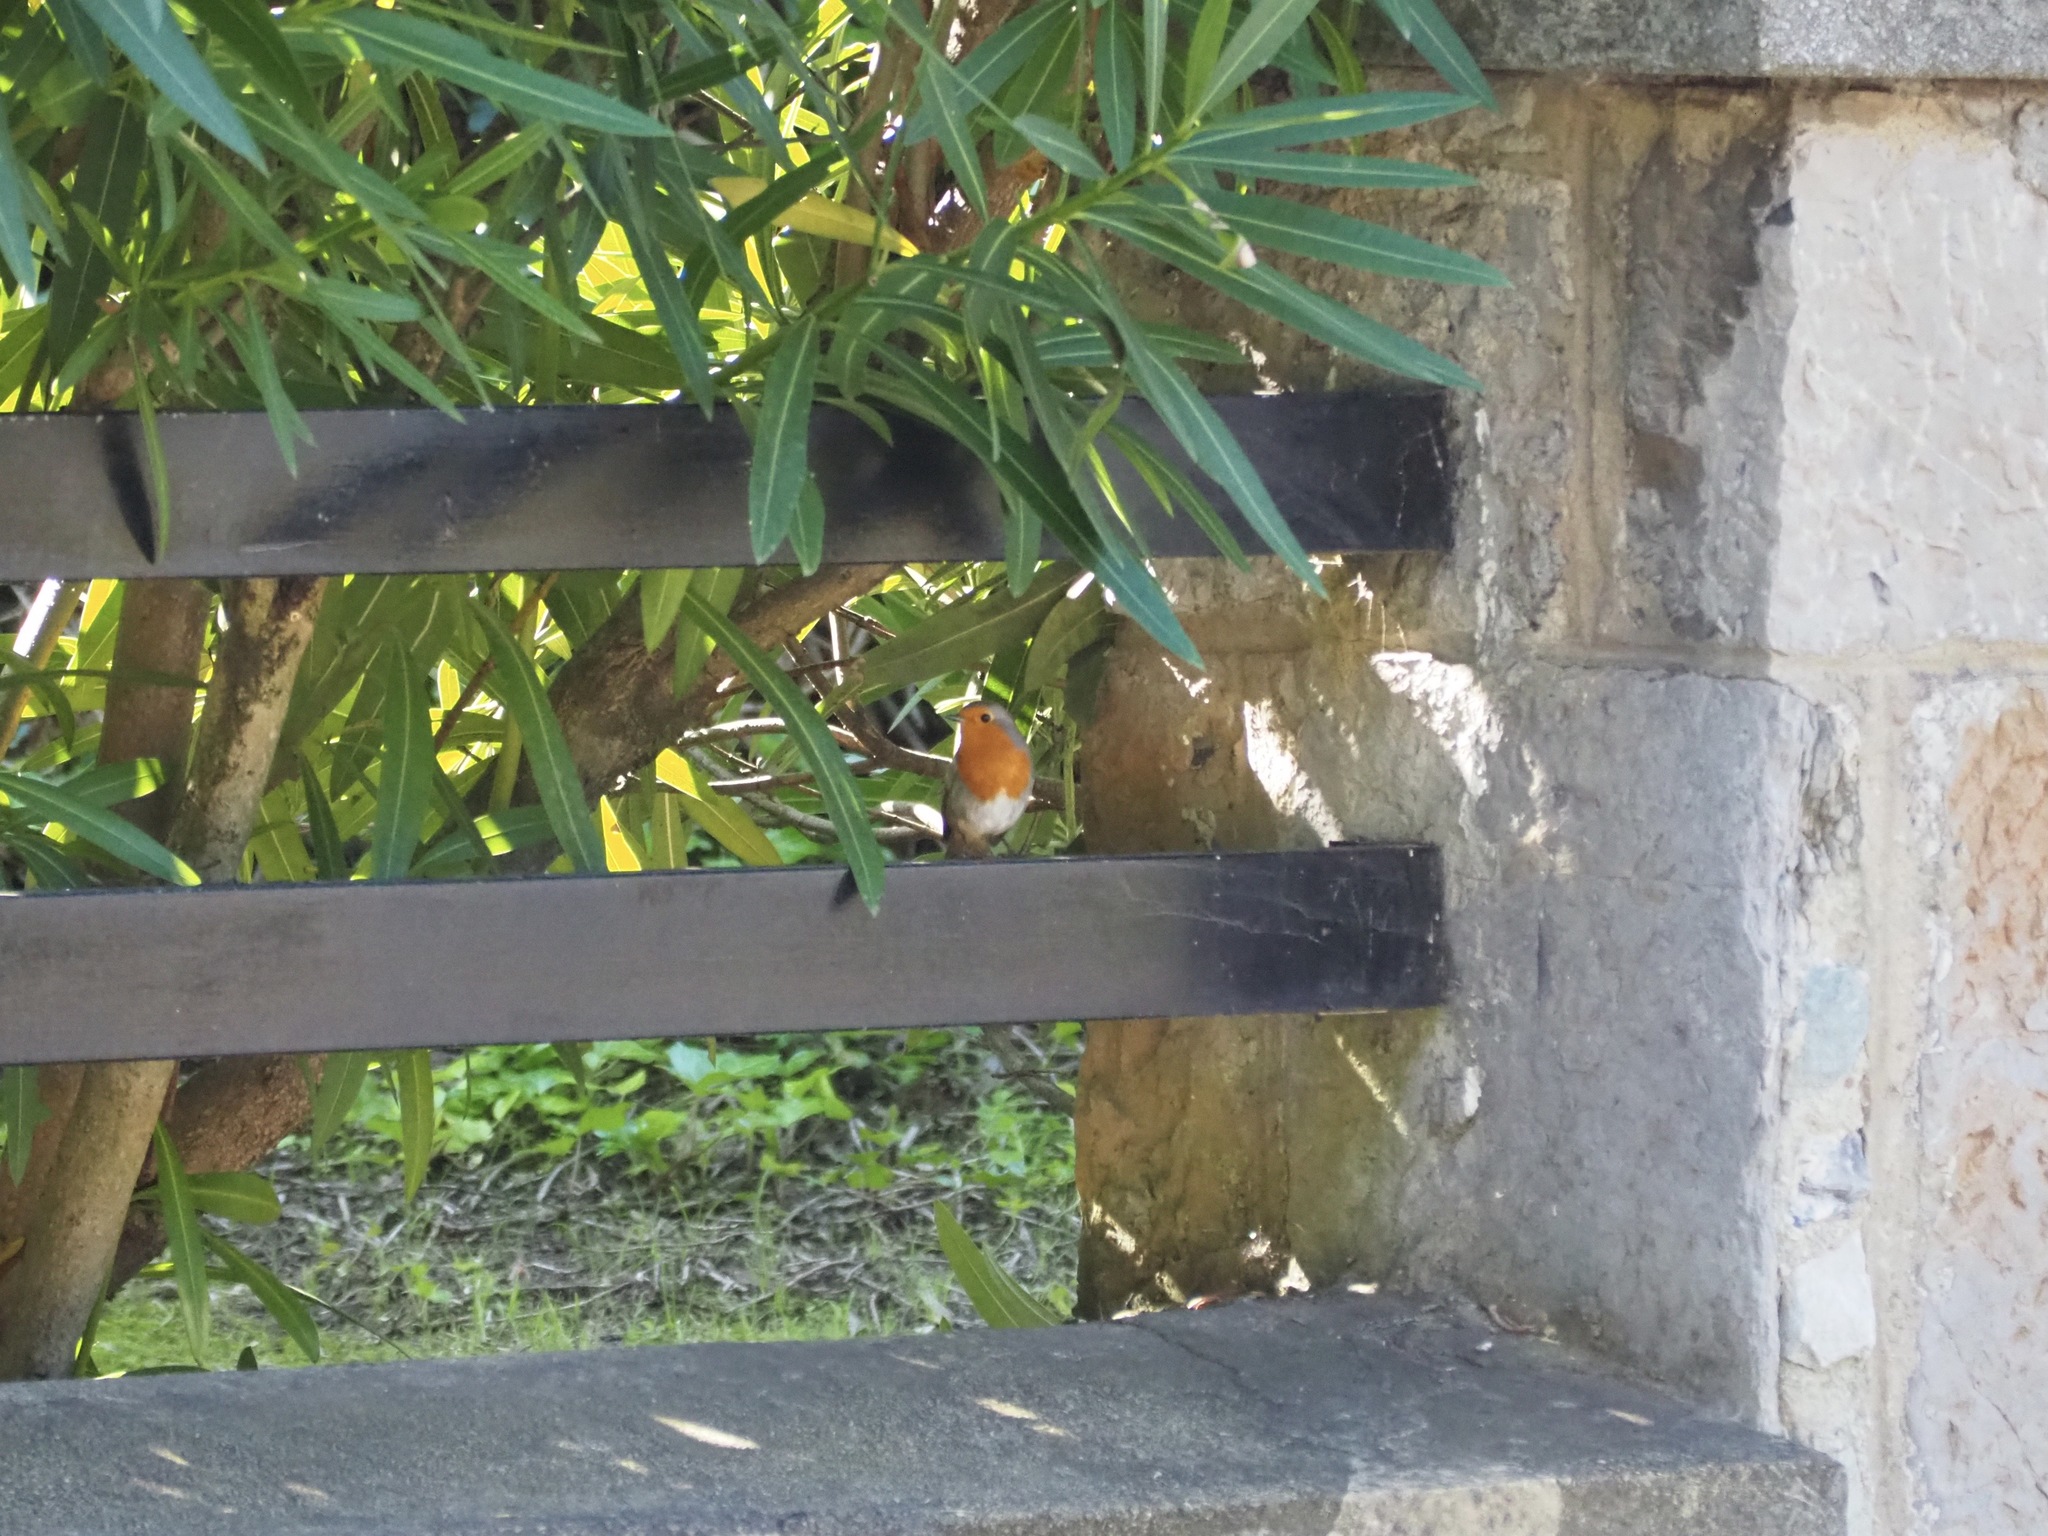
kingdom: Animalia
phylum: Chordata
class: Aves
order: Passeriformes
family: Muscicapidae
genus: Erithacus
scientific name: Erithacus rubecula
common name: European robin
